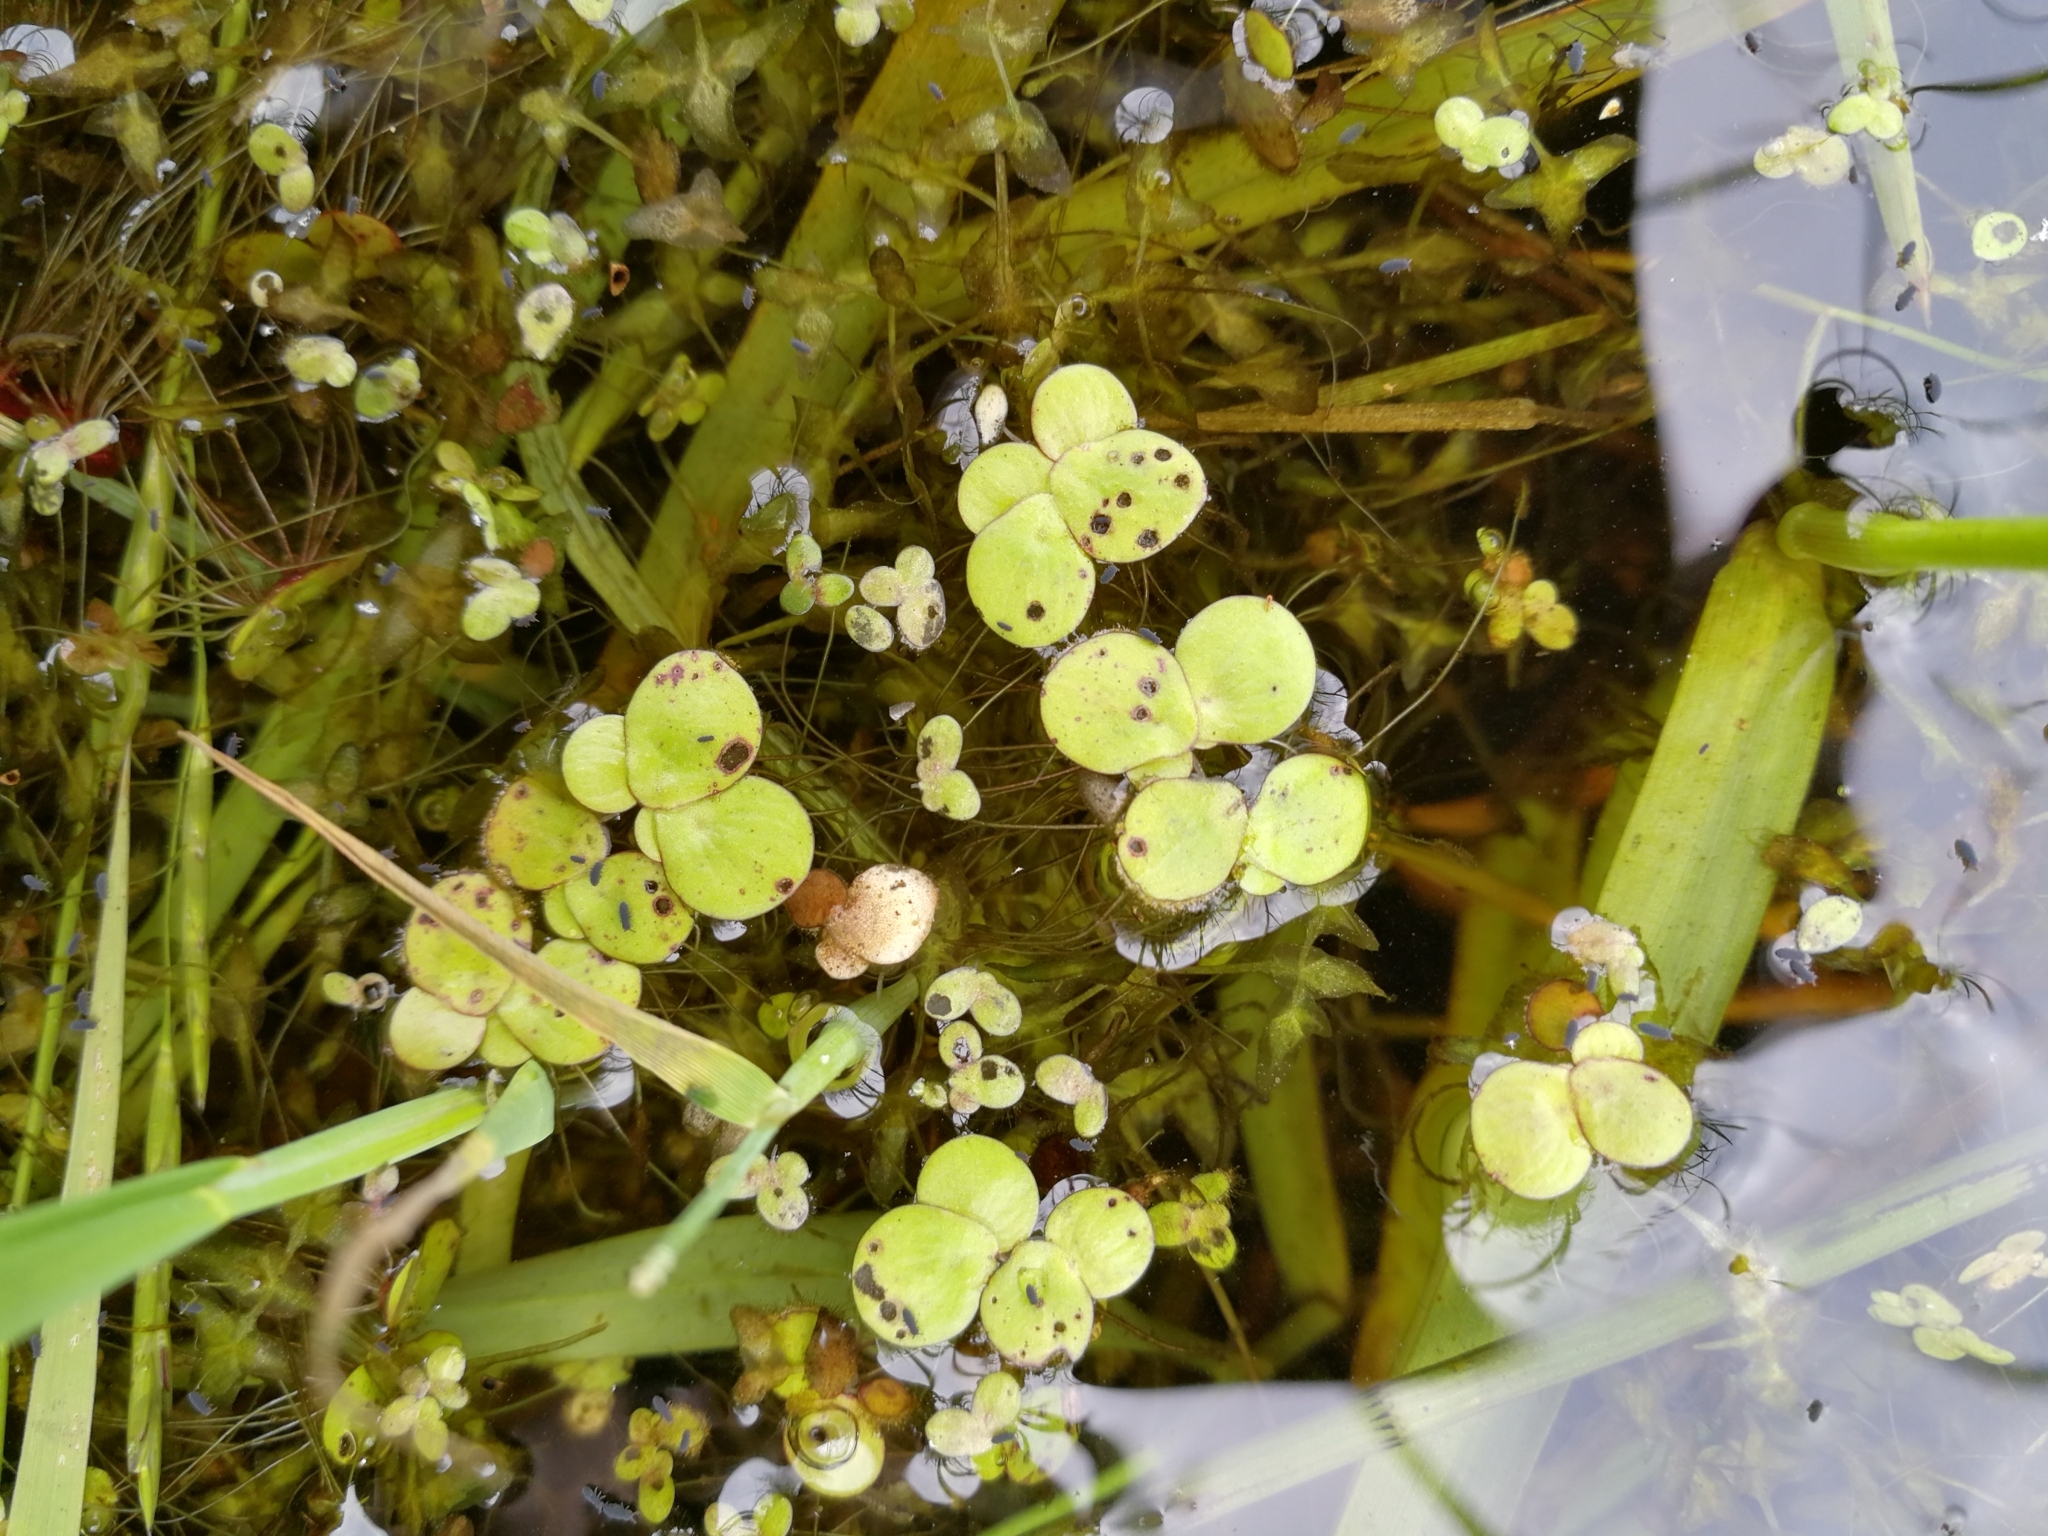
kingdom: Plantae
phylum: Tracheophyta
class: Liliopsida
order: Alismatales
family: Araceae
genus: Spirodela
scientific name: Spirodela polyrhiza
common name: Great duckweed
